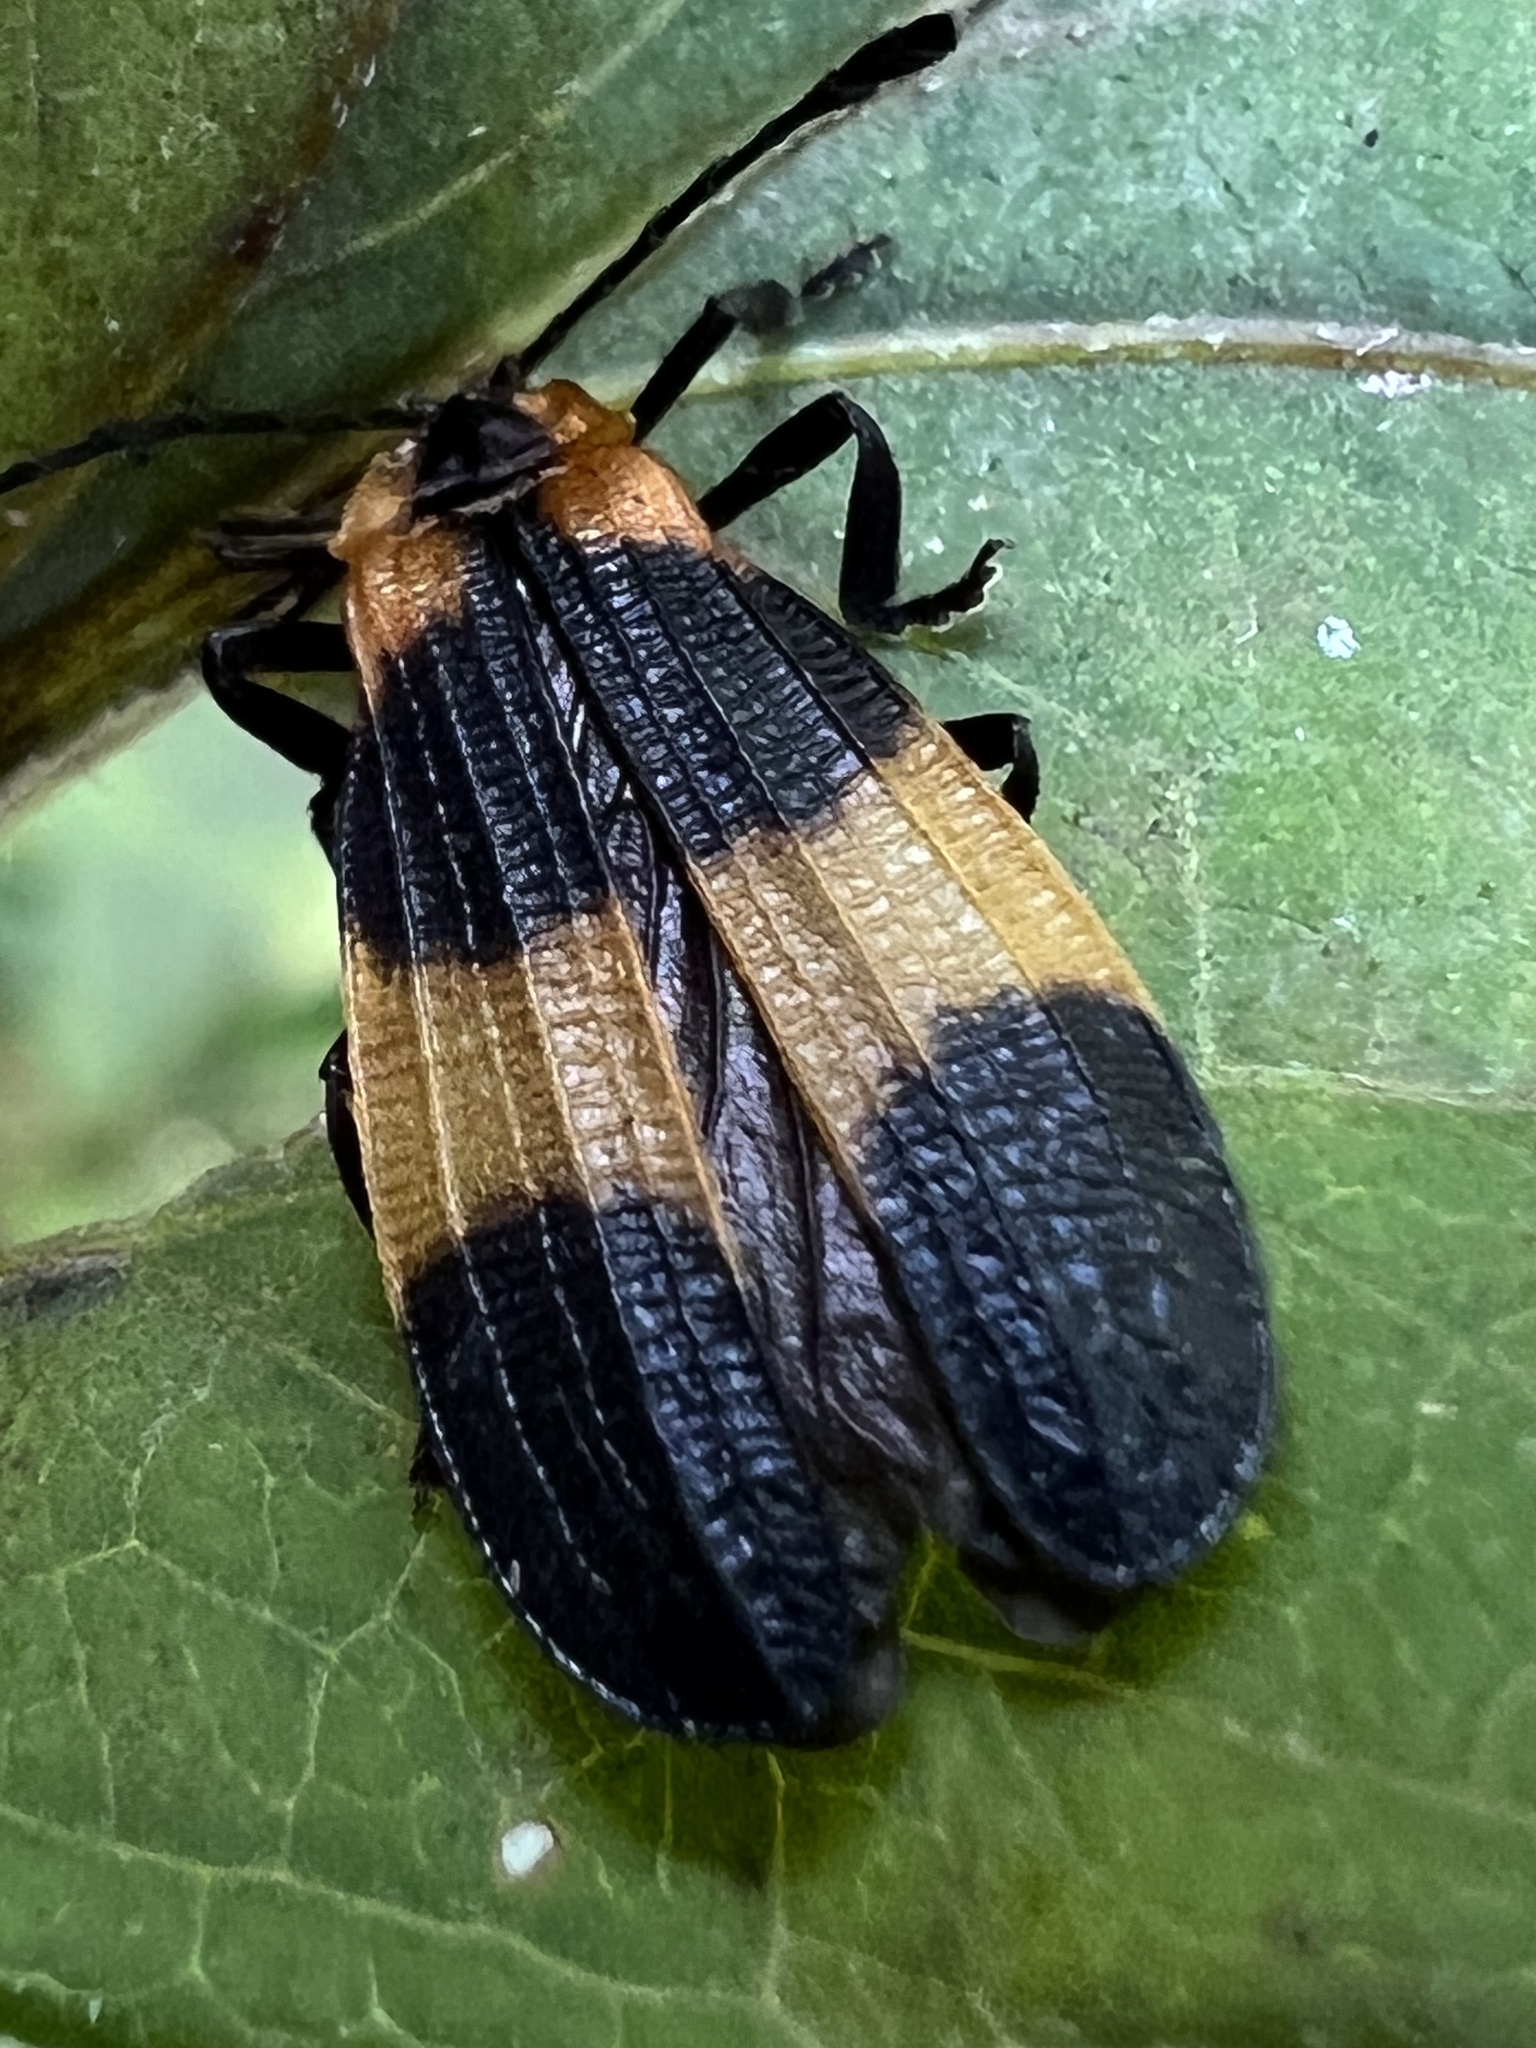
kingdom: Animalia
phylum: Arthropoda
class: Insecta
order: Coleoptera
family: Lycidae
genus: Calopteron
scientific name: Calopteron reticulatum
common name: Banded net-winged beetle
